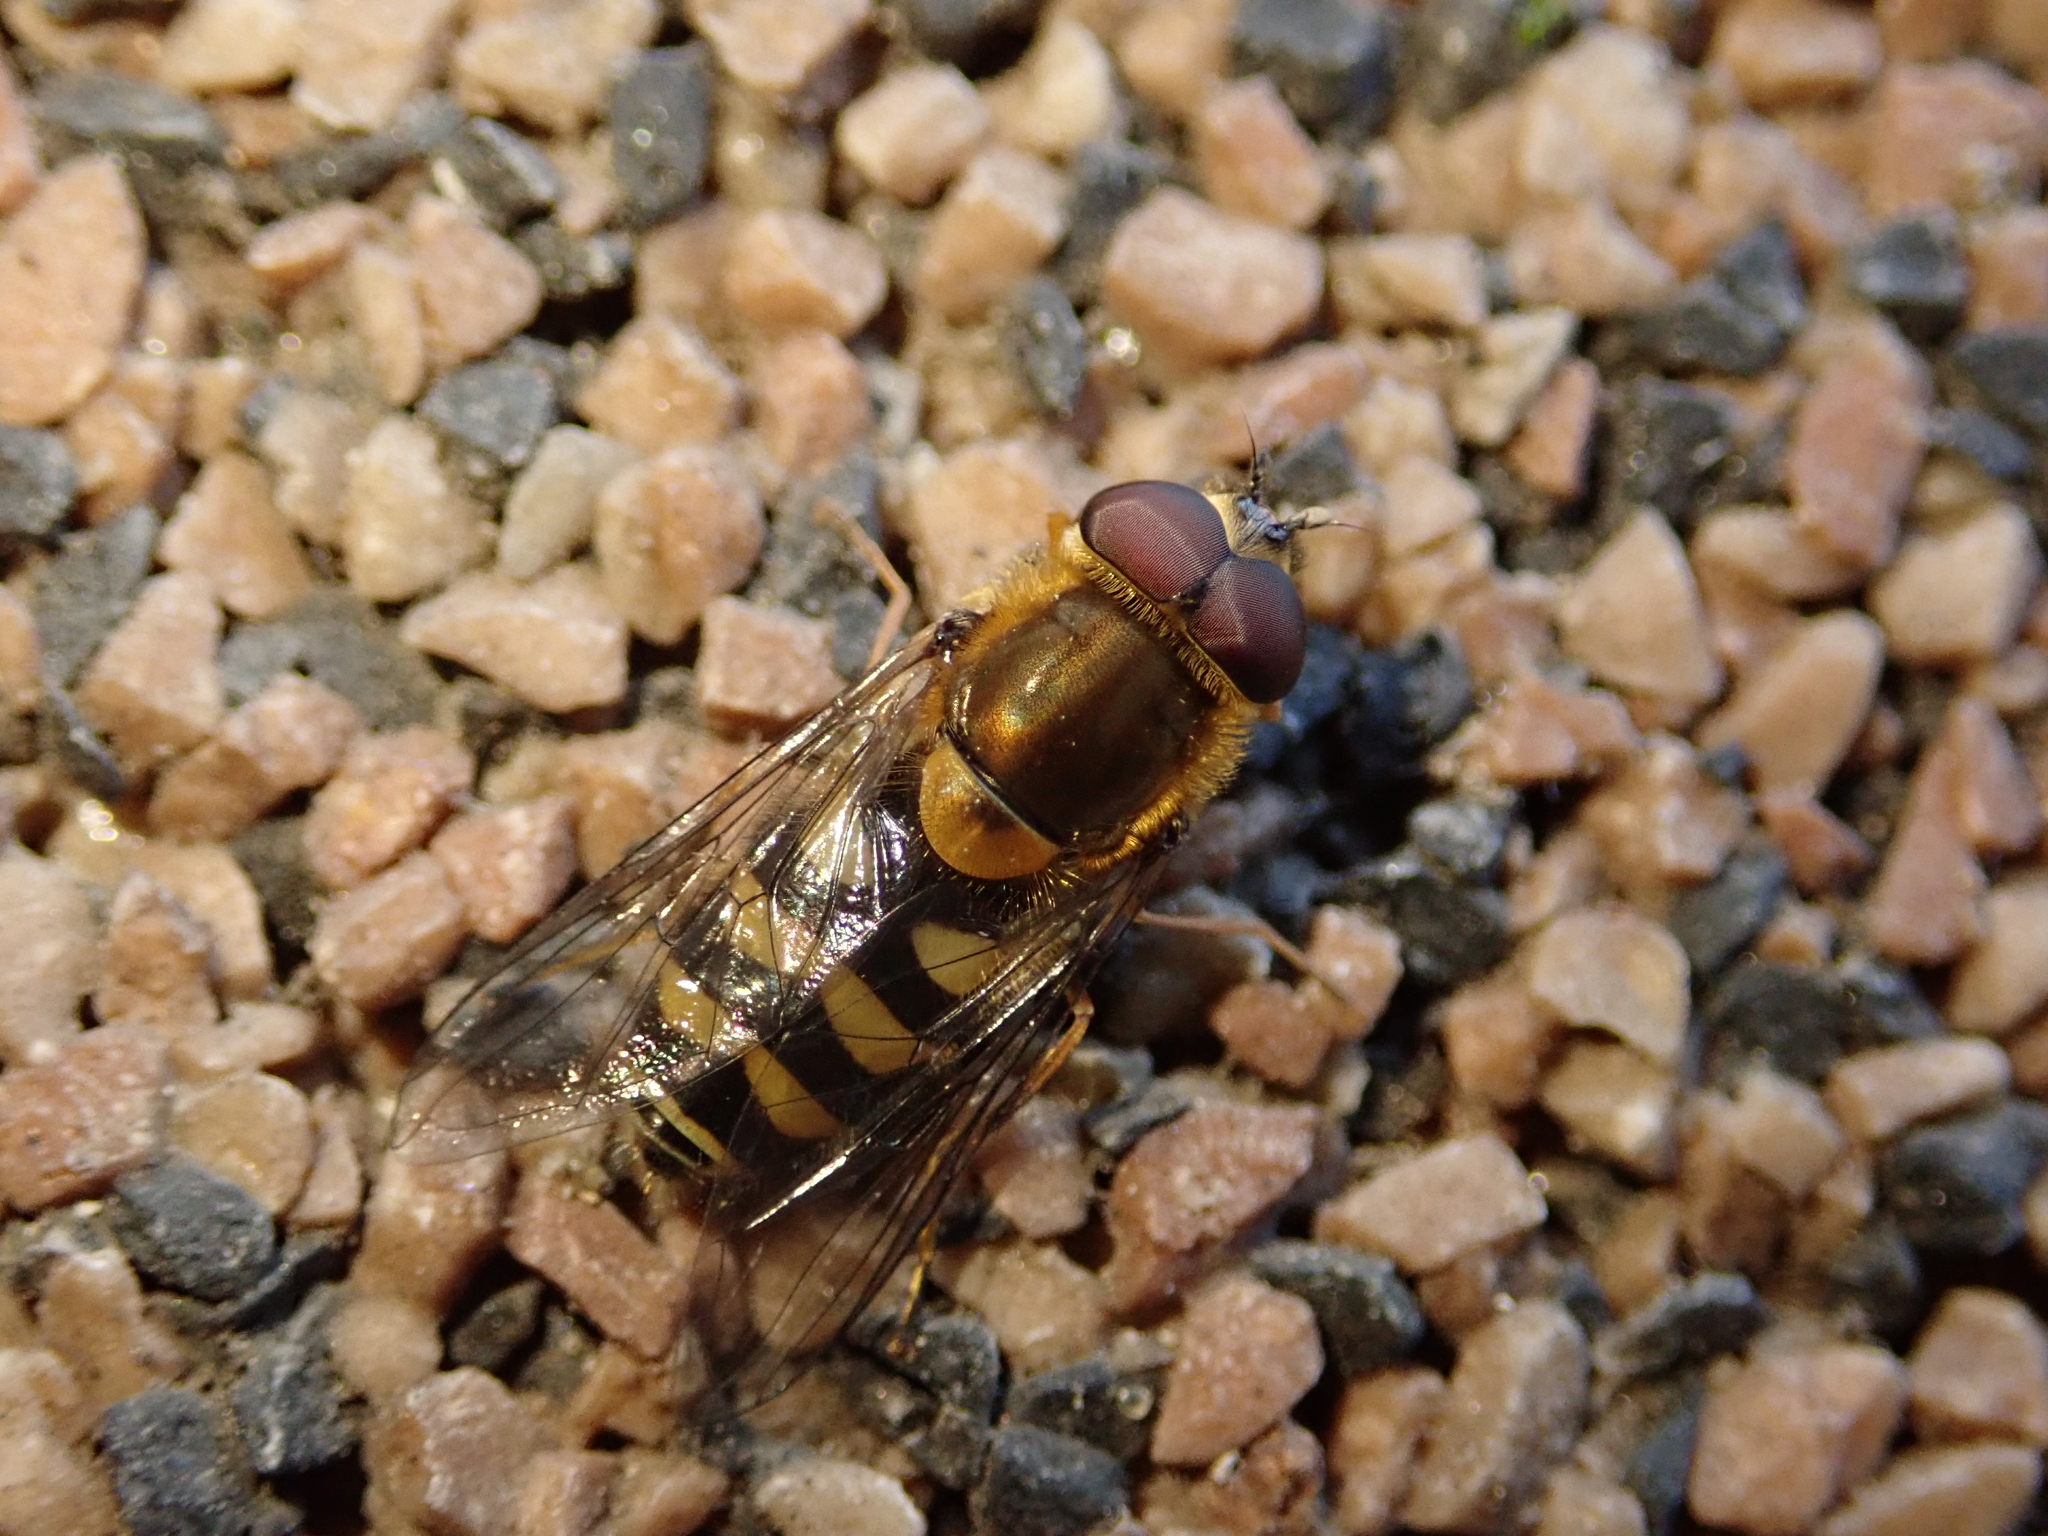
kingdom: Animalia
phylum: Arthropoda
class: Insecta
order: Diptera
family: Syrphidae
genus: Syrphus
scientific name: Syrphus
